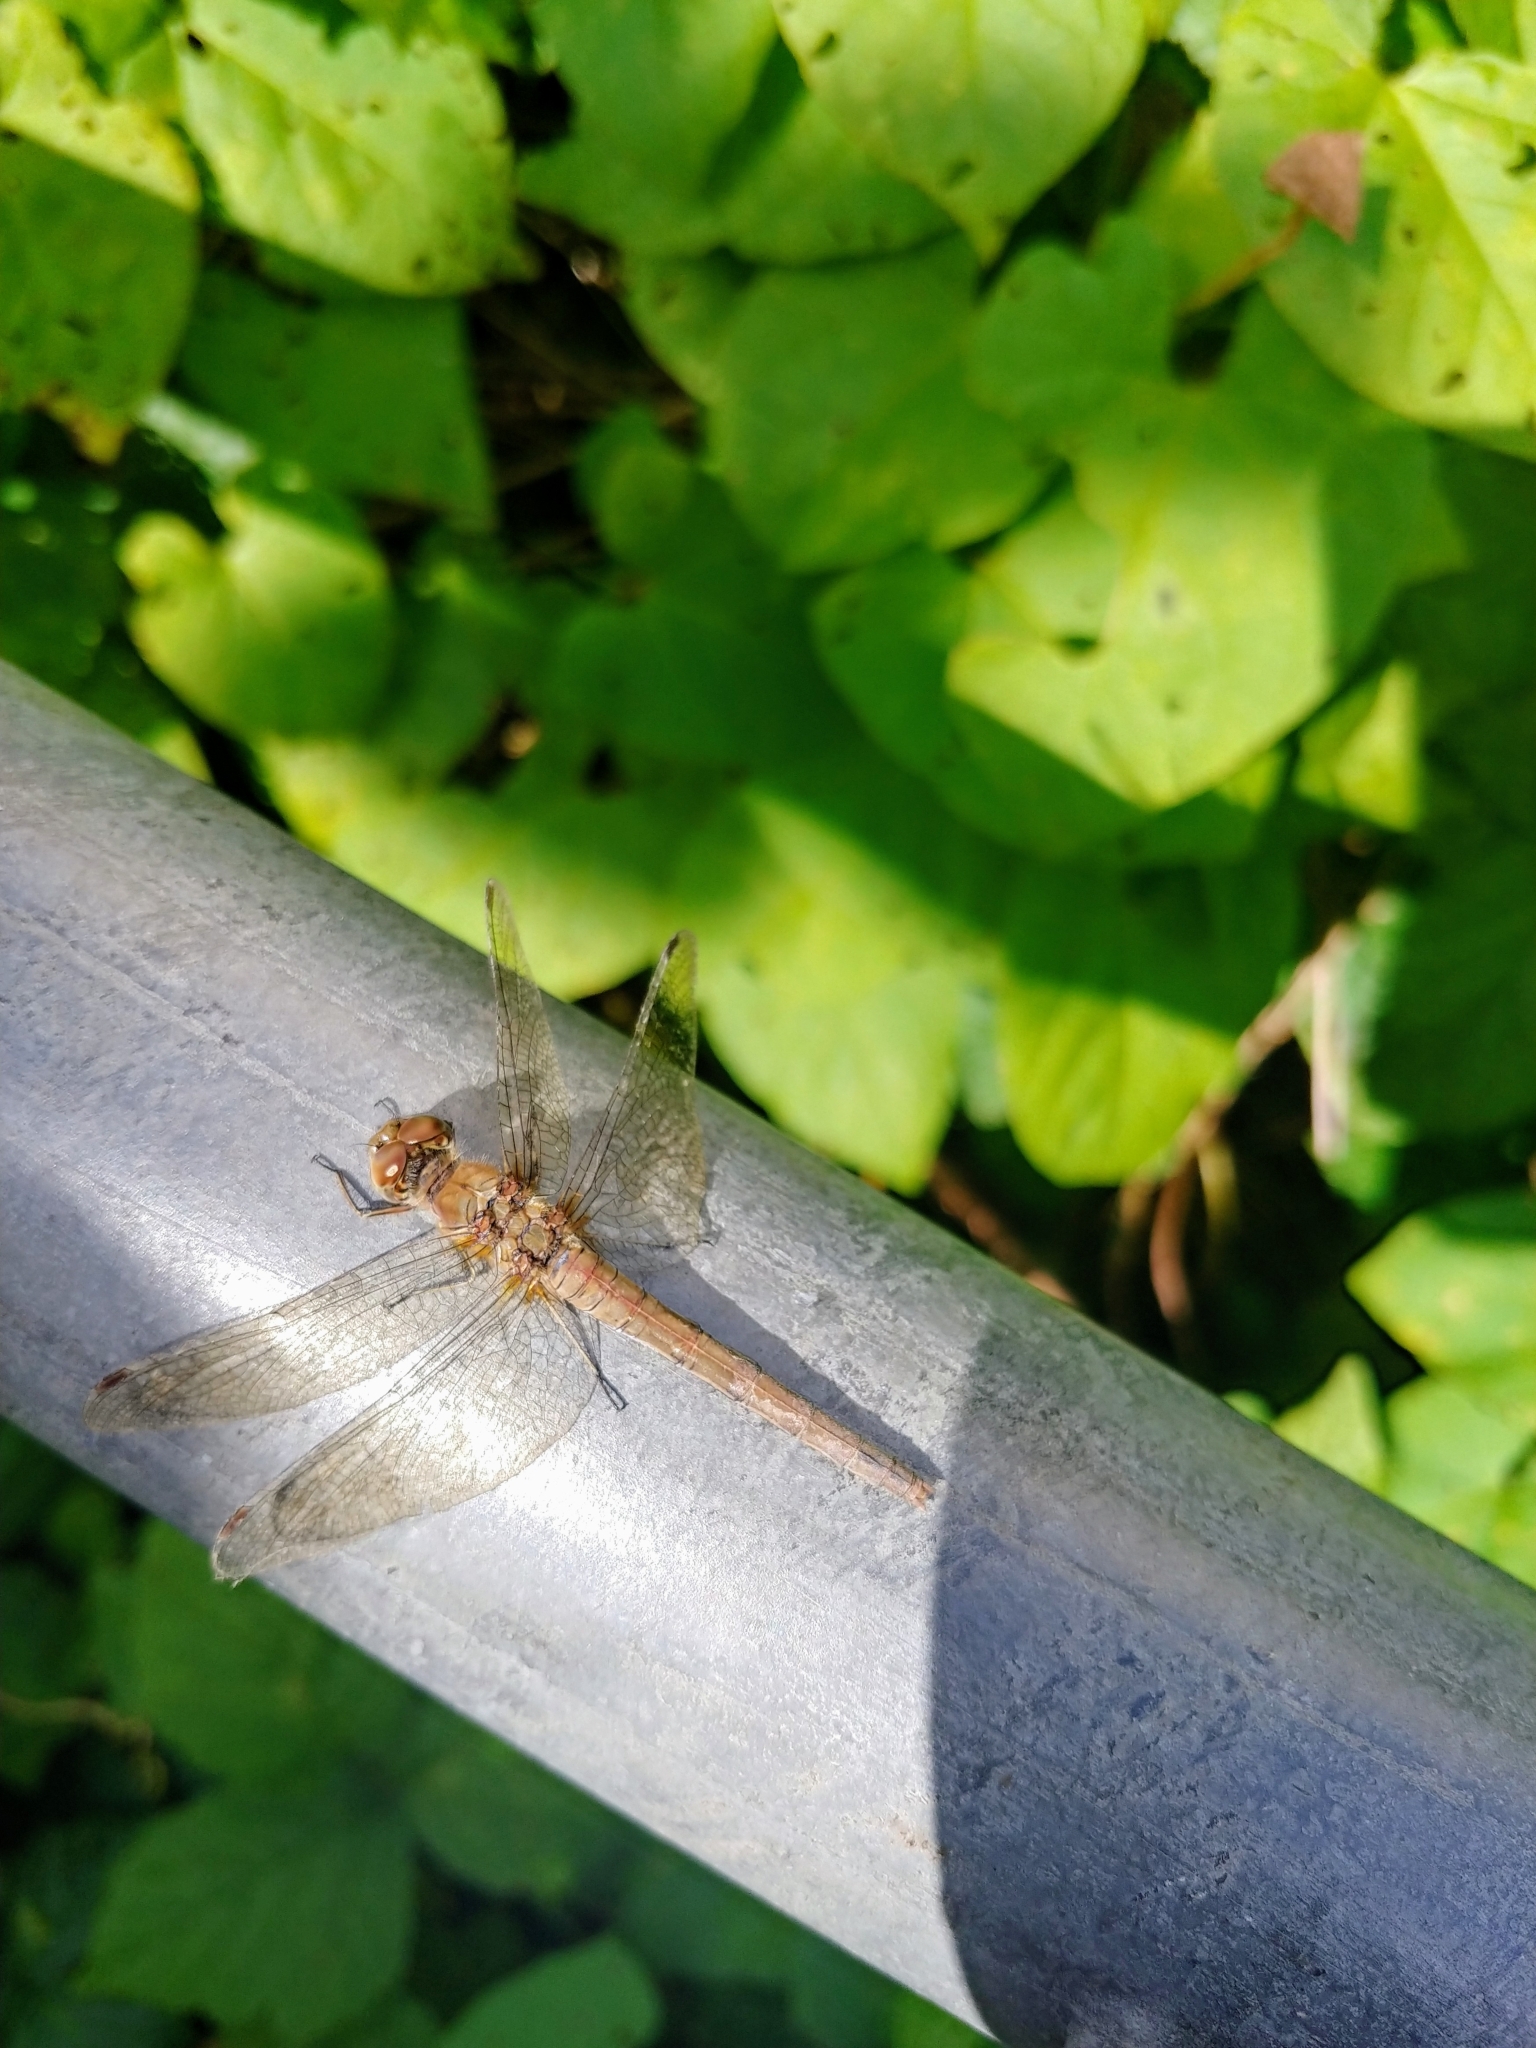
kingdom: Animalia
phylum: Arthropoda
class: Insecta
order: Odonata
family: Libellulidae
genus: Sympetrum
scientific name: Sympetrum striolatum
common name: Common darter
